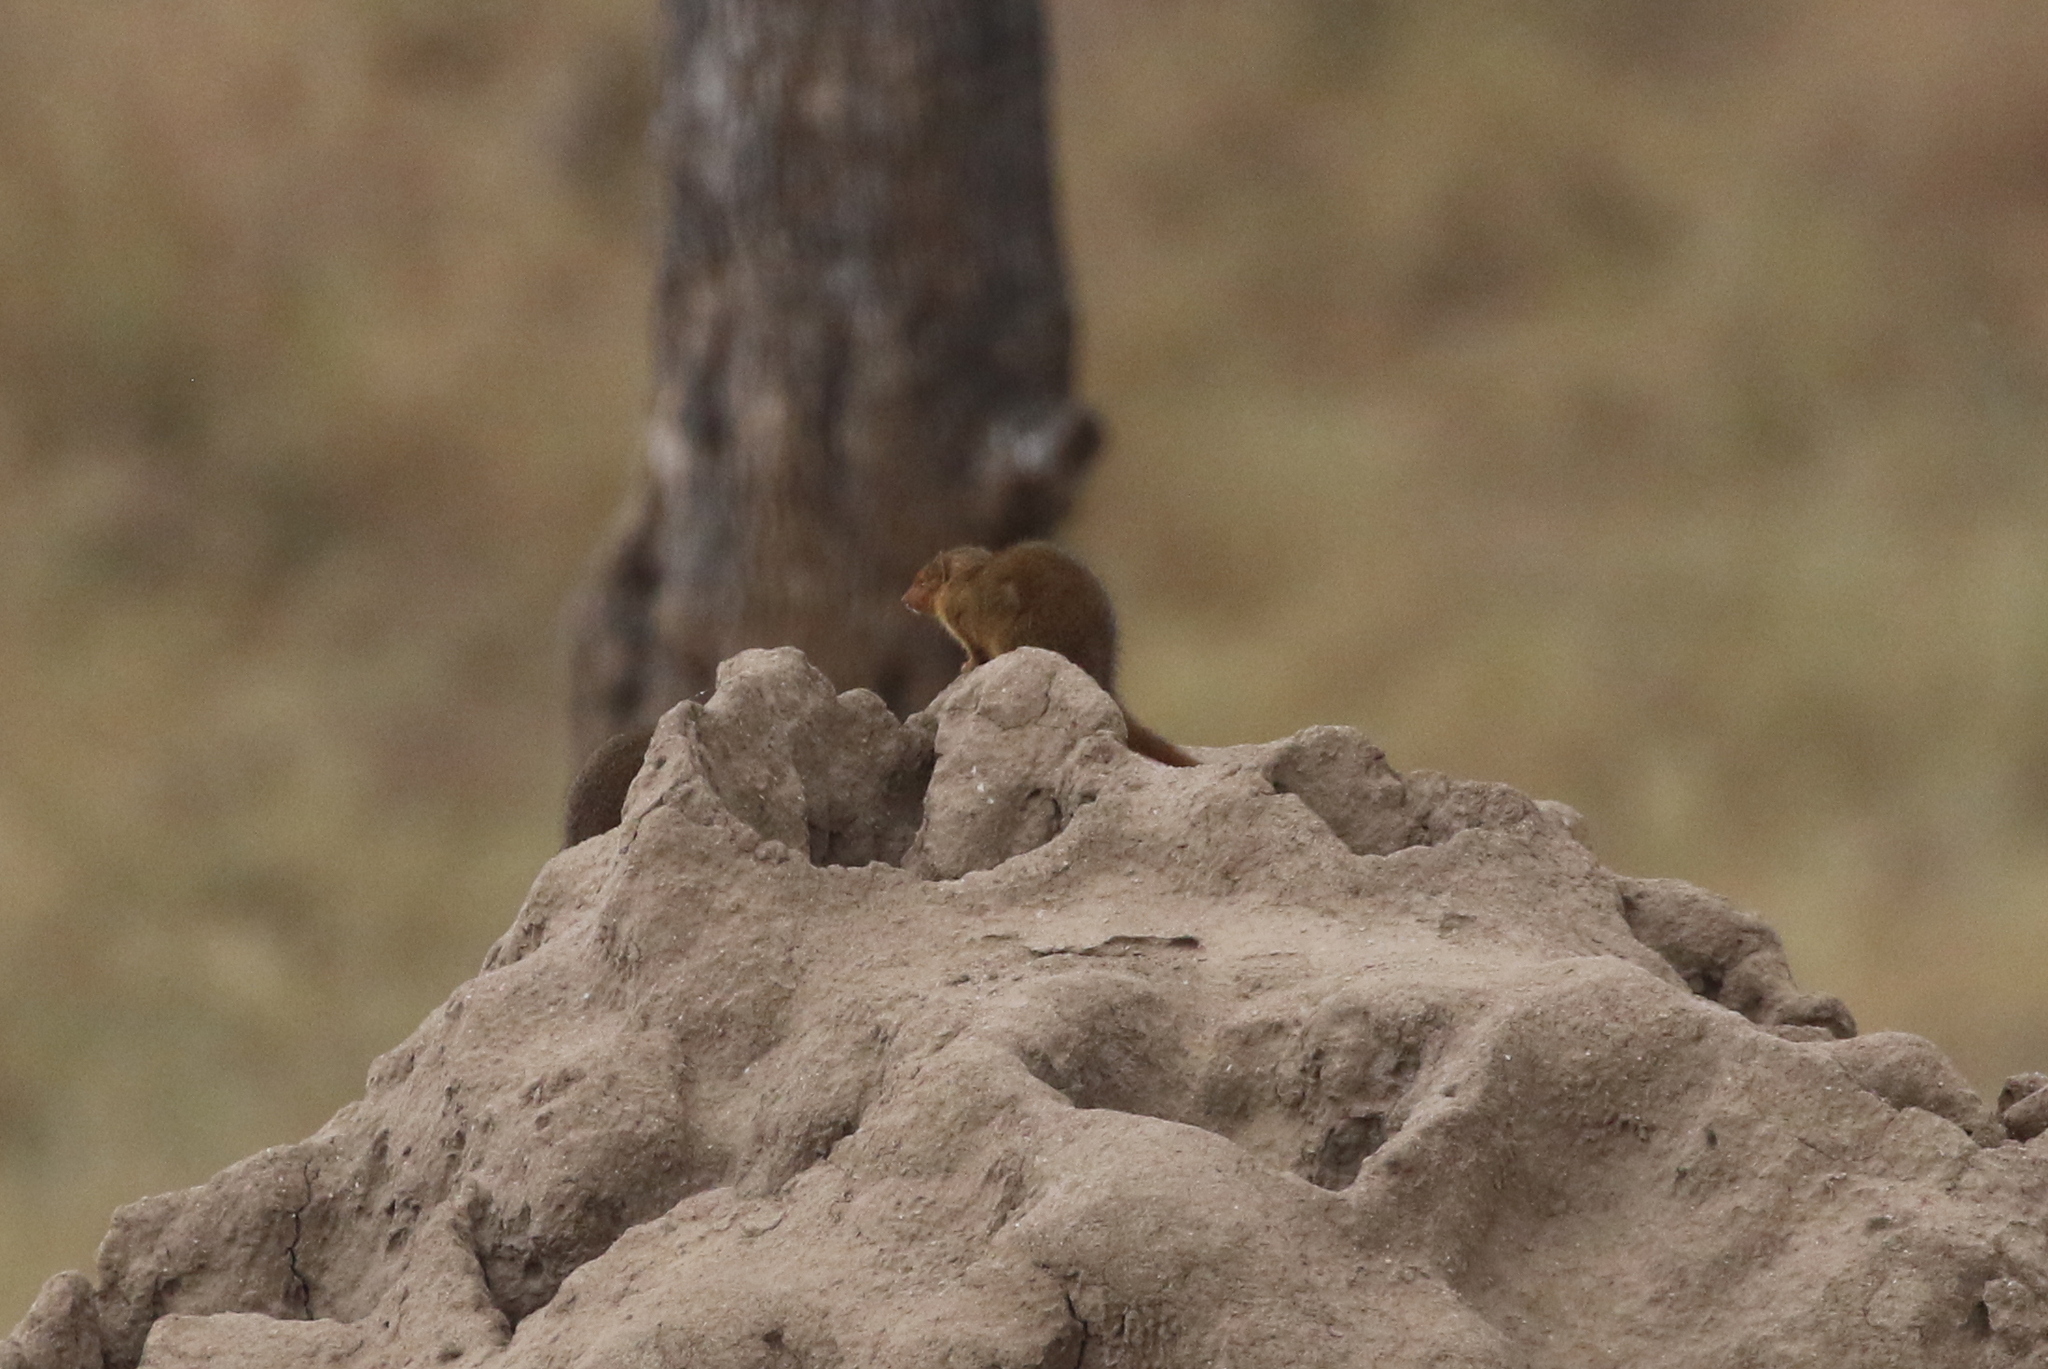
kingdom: Animalia
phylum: Chordata
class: Mammalia
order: Carnivora
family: Herpestidae
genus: Helogale
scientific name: Helogale parvula
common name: Common dwarf mongoose
